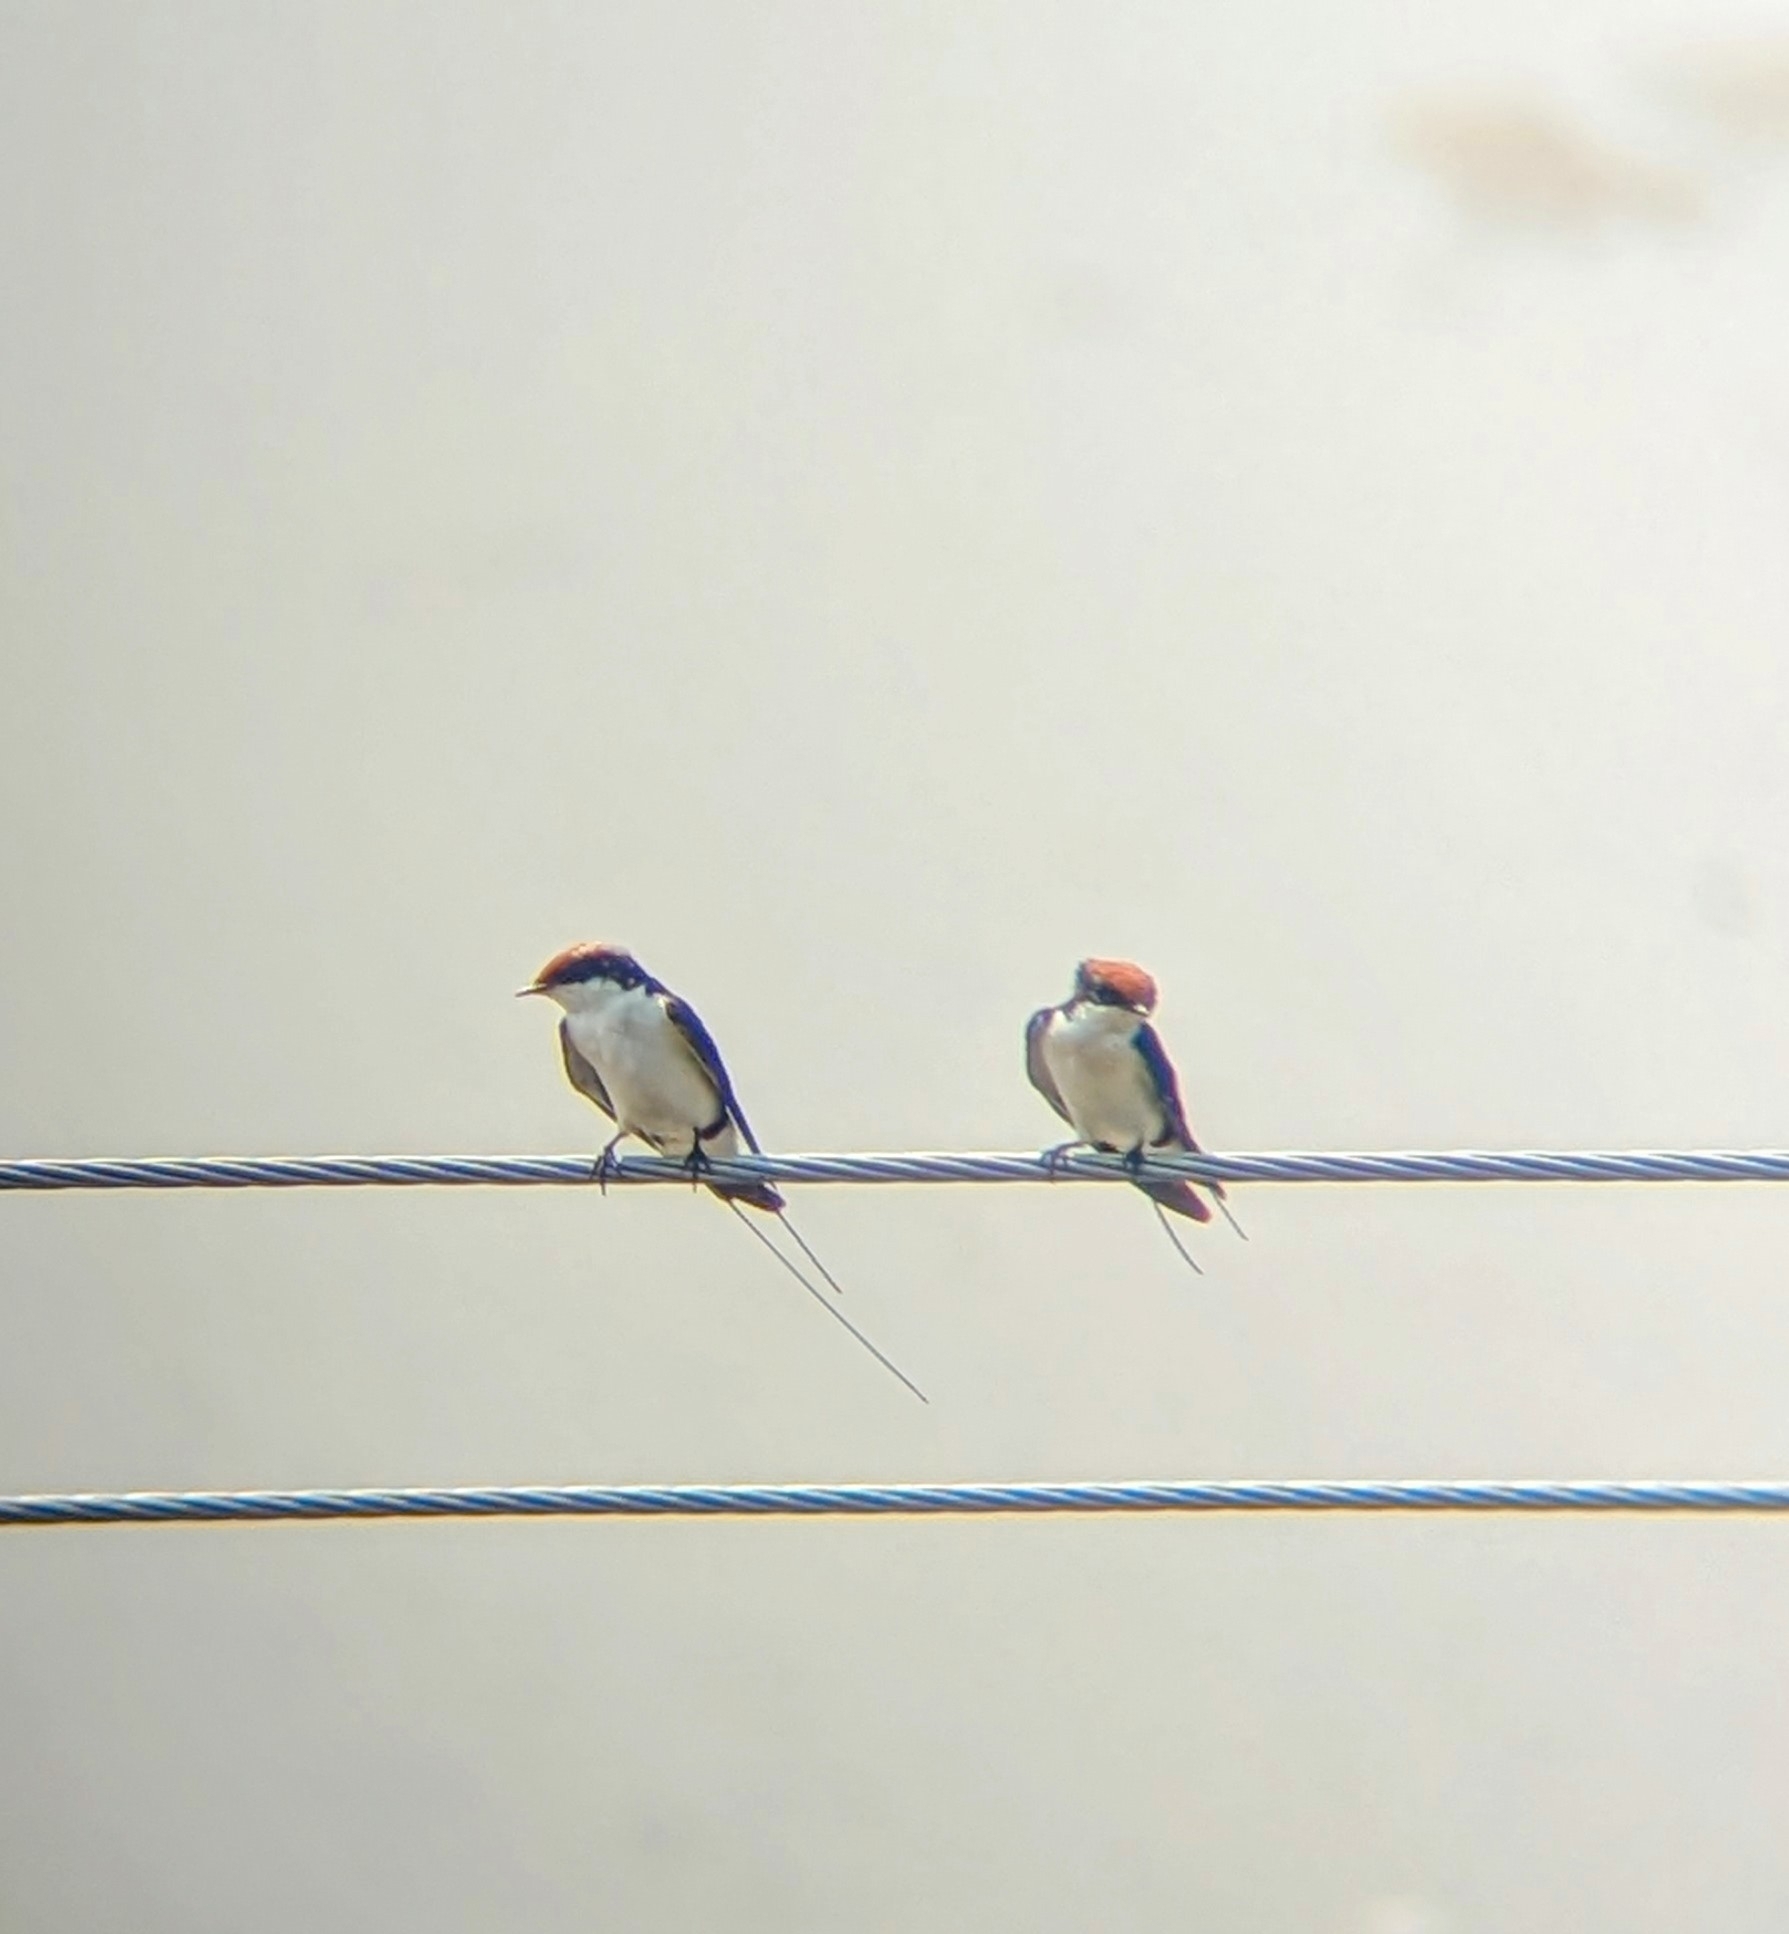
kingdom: Animalia
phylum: Chordata
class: Aves
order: Passeriformes
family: Hirundinidae
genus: Hirundo
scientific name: Hirundo smithii
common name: Wire-tailed swallow
